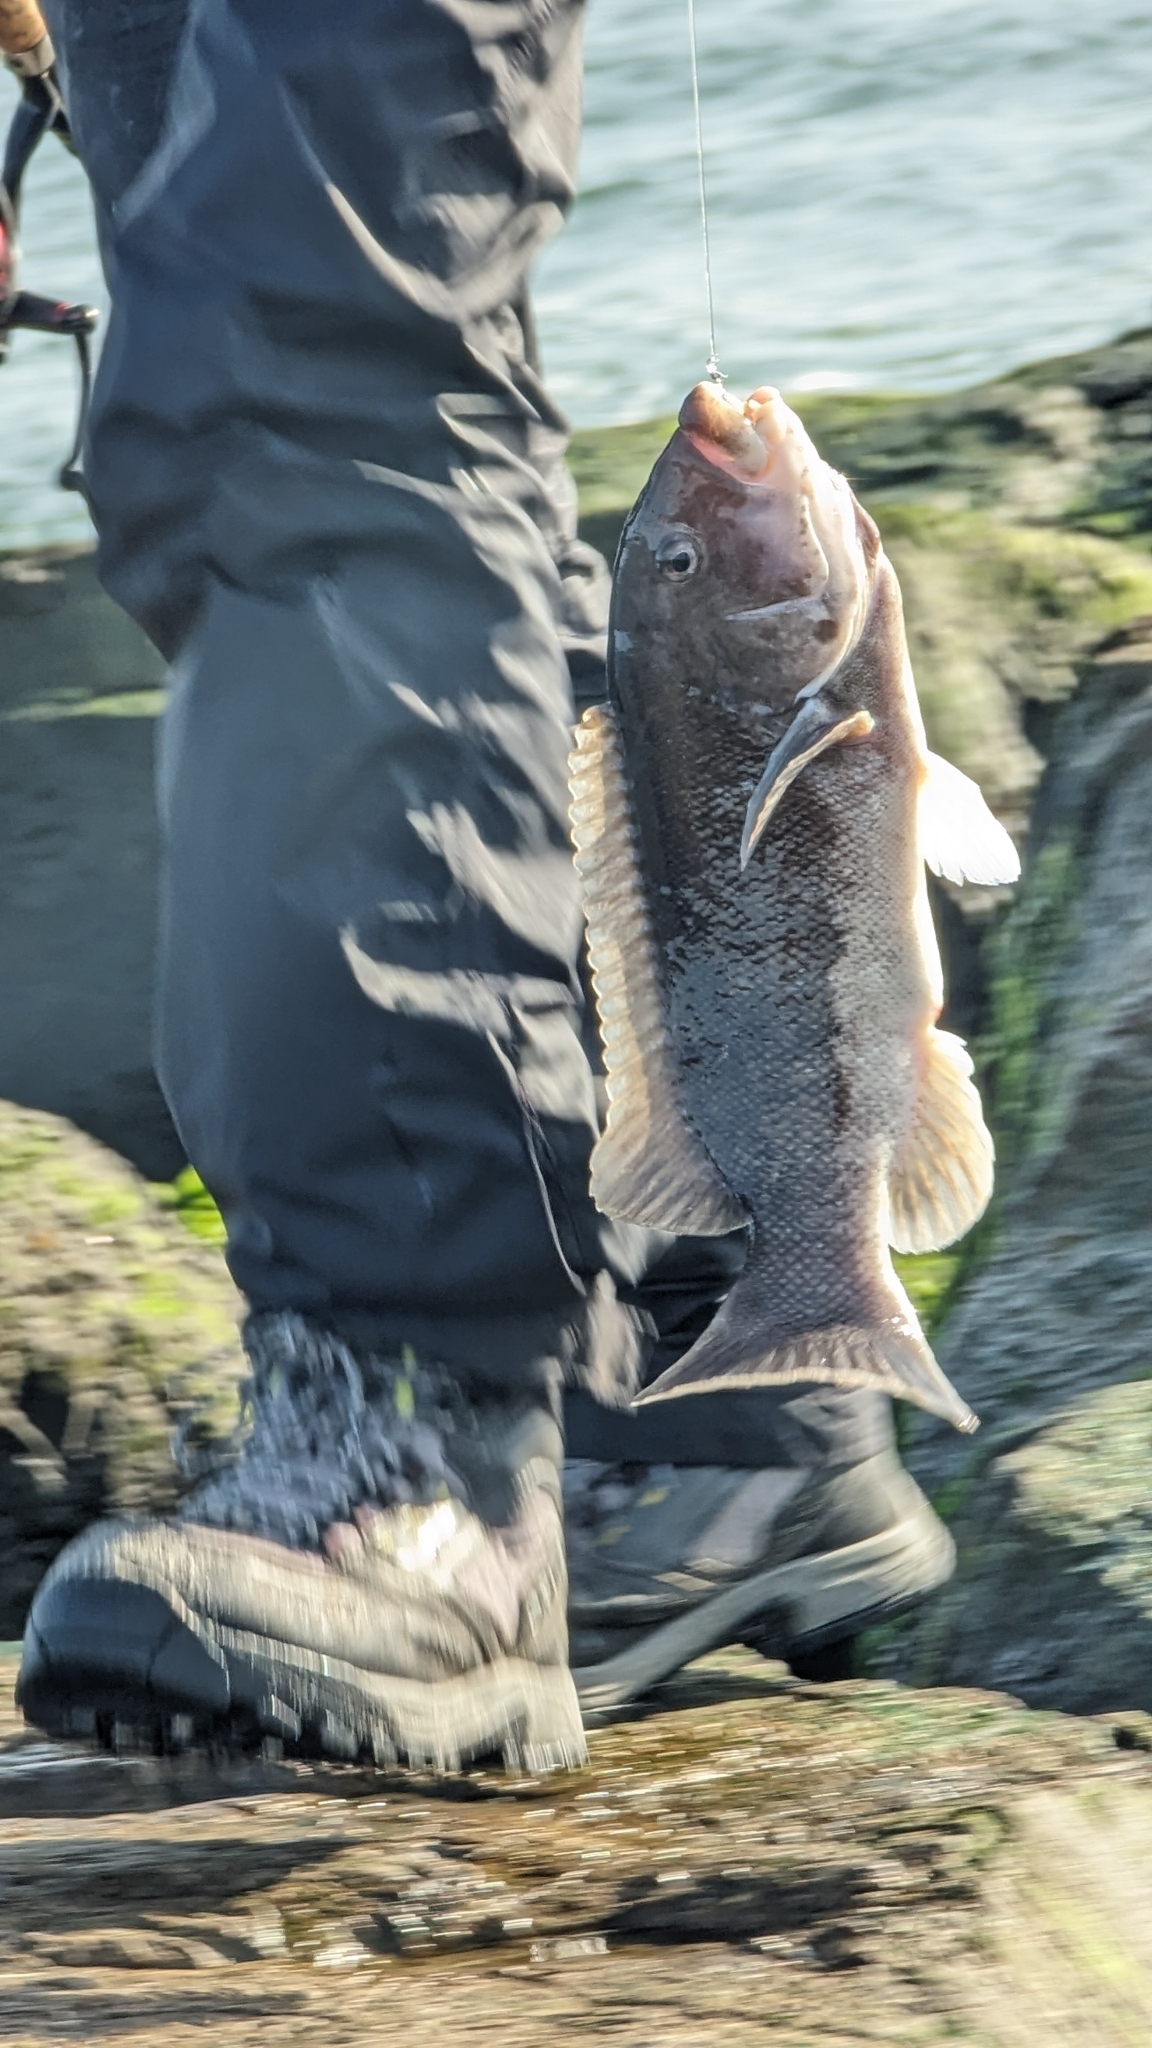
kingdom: Animalia
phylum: Chordata
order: Perciformes
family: Labridae
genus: Tautoga
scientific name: Tautoga onitis
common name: Tautog
